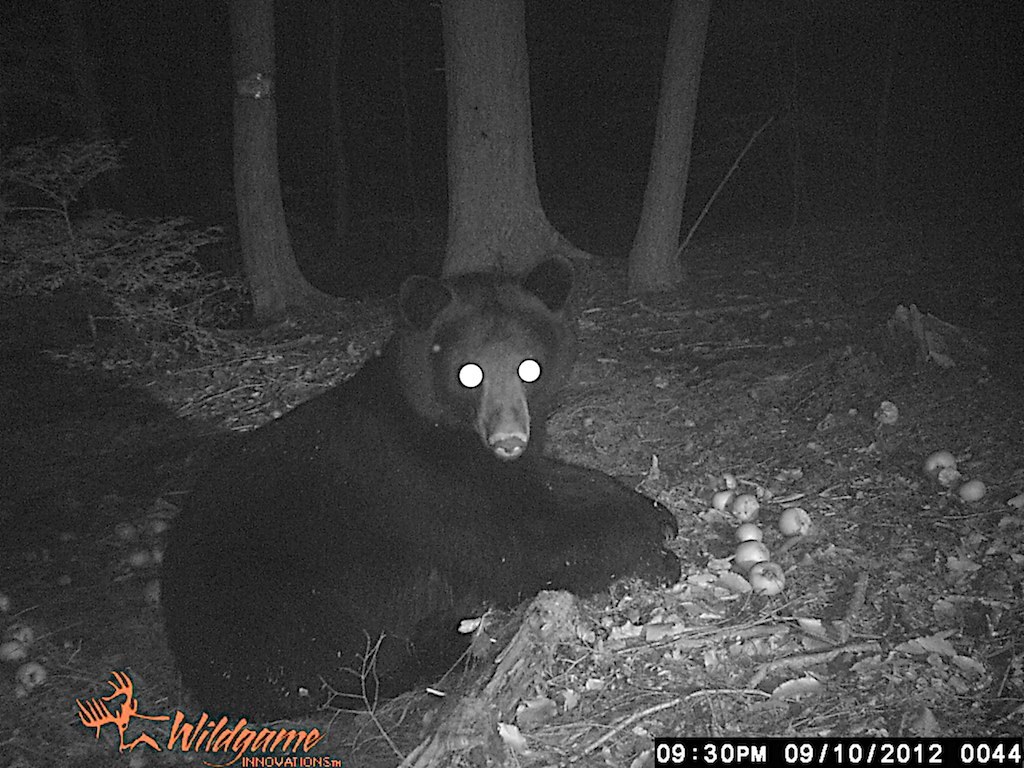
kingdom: Animalia
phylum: Chordata
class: Mammalia
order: Carnivora
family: Ursidae
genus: Ursus
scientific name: Ursus americanus
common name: American black bear
